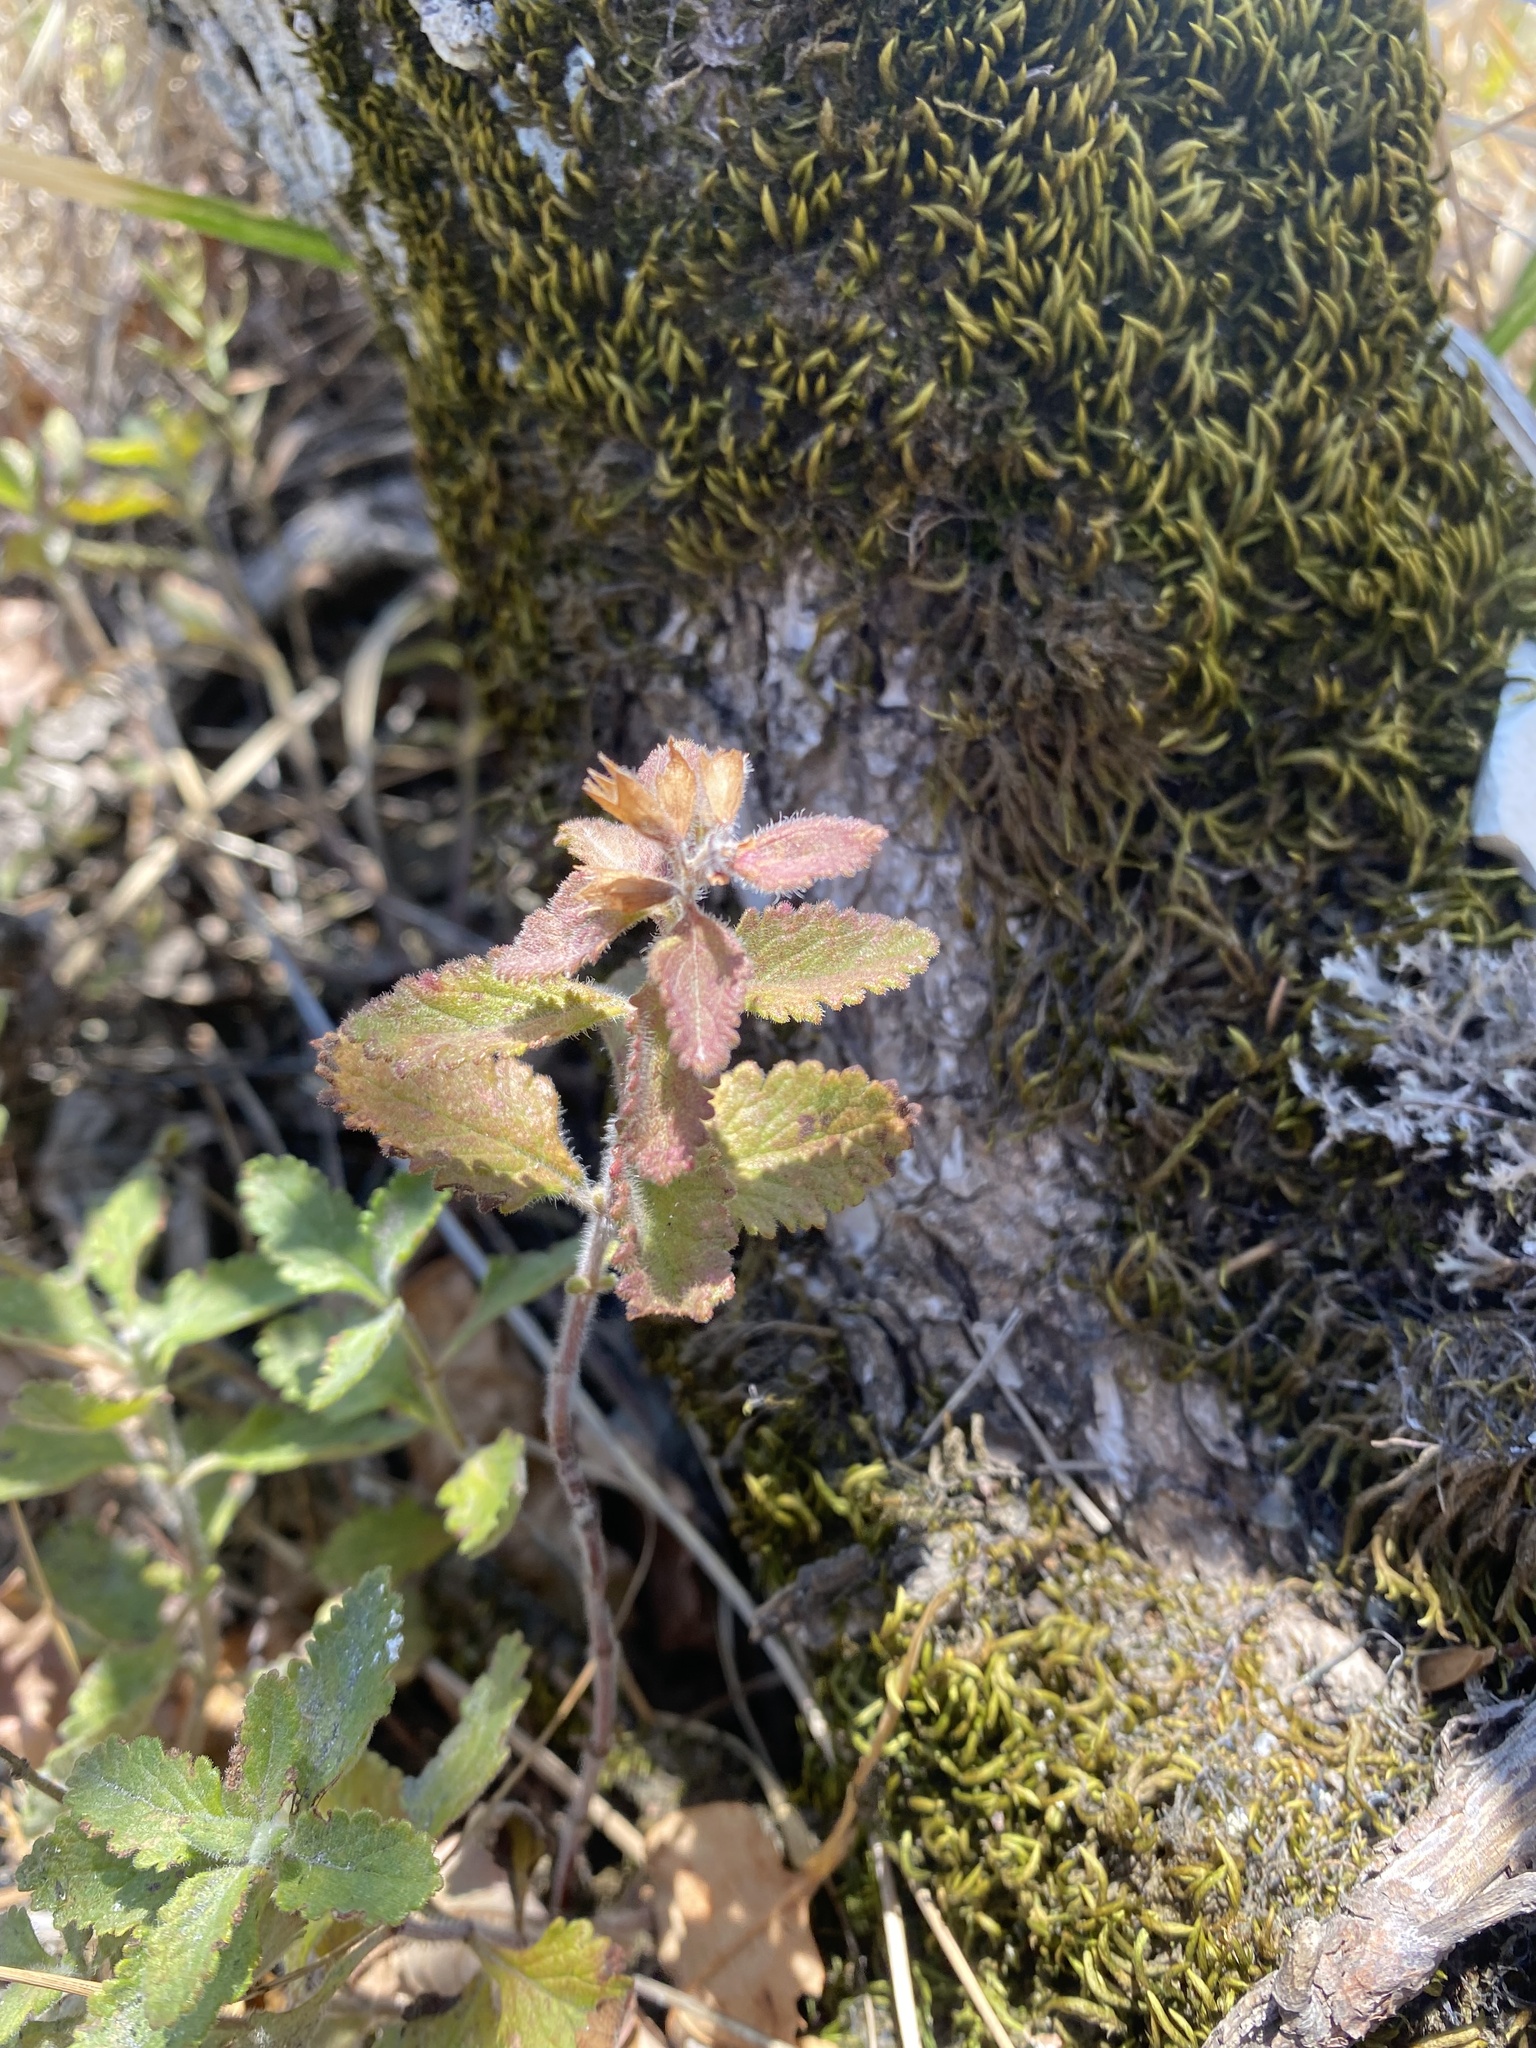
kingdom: Plantae
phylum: Tracheophyta
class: Magnoliopsida
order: Lamiales
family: Lamiaceae
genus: Teucrium
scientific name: Teucrium chamaedrys
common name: Wall germander
